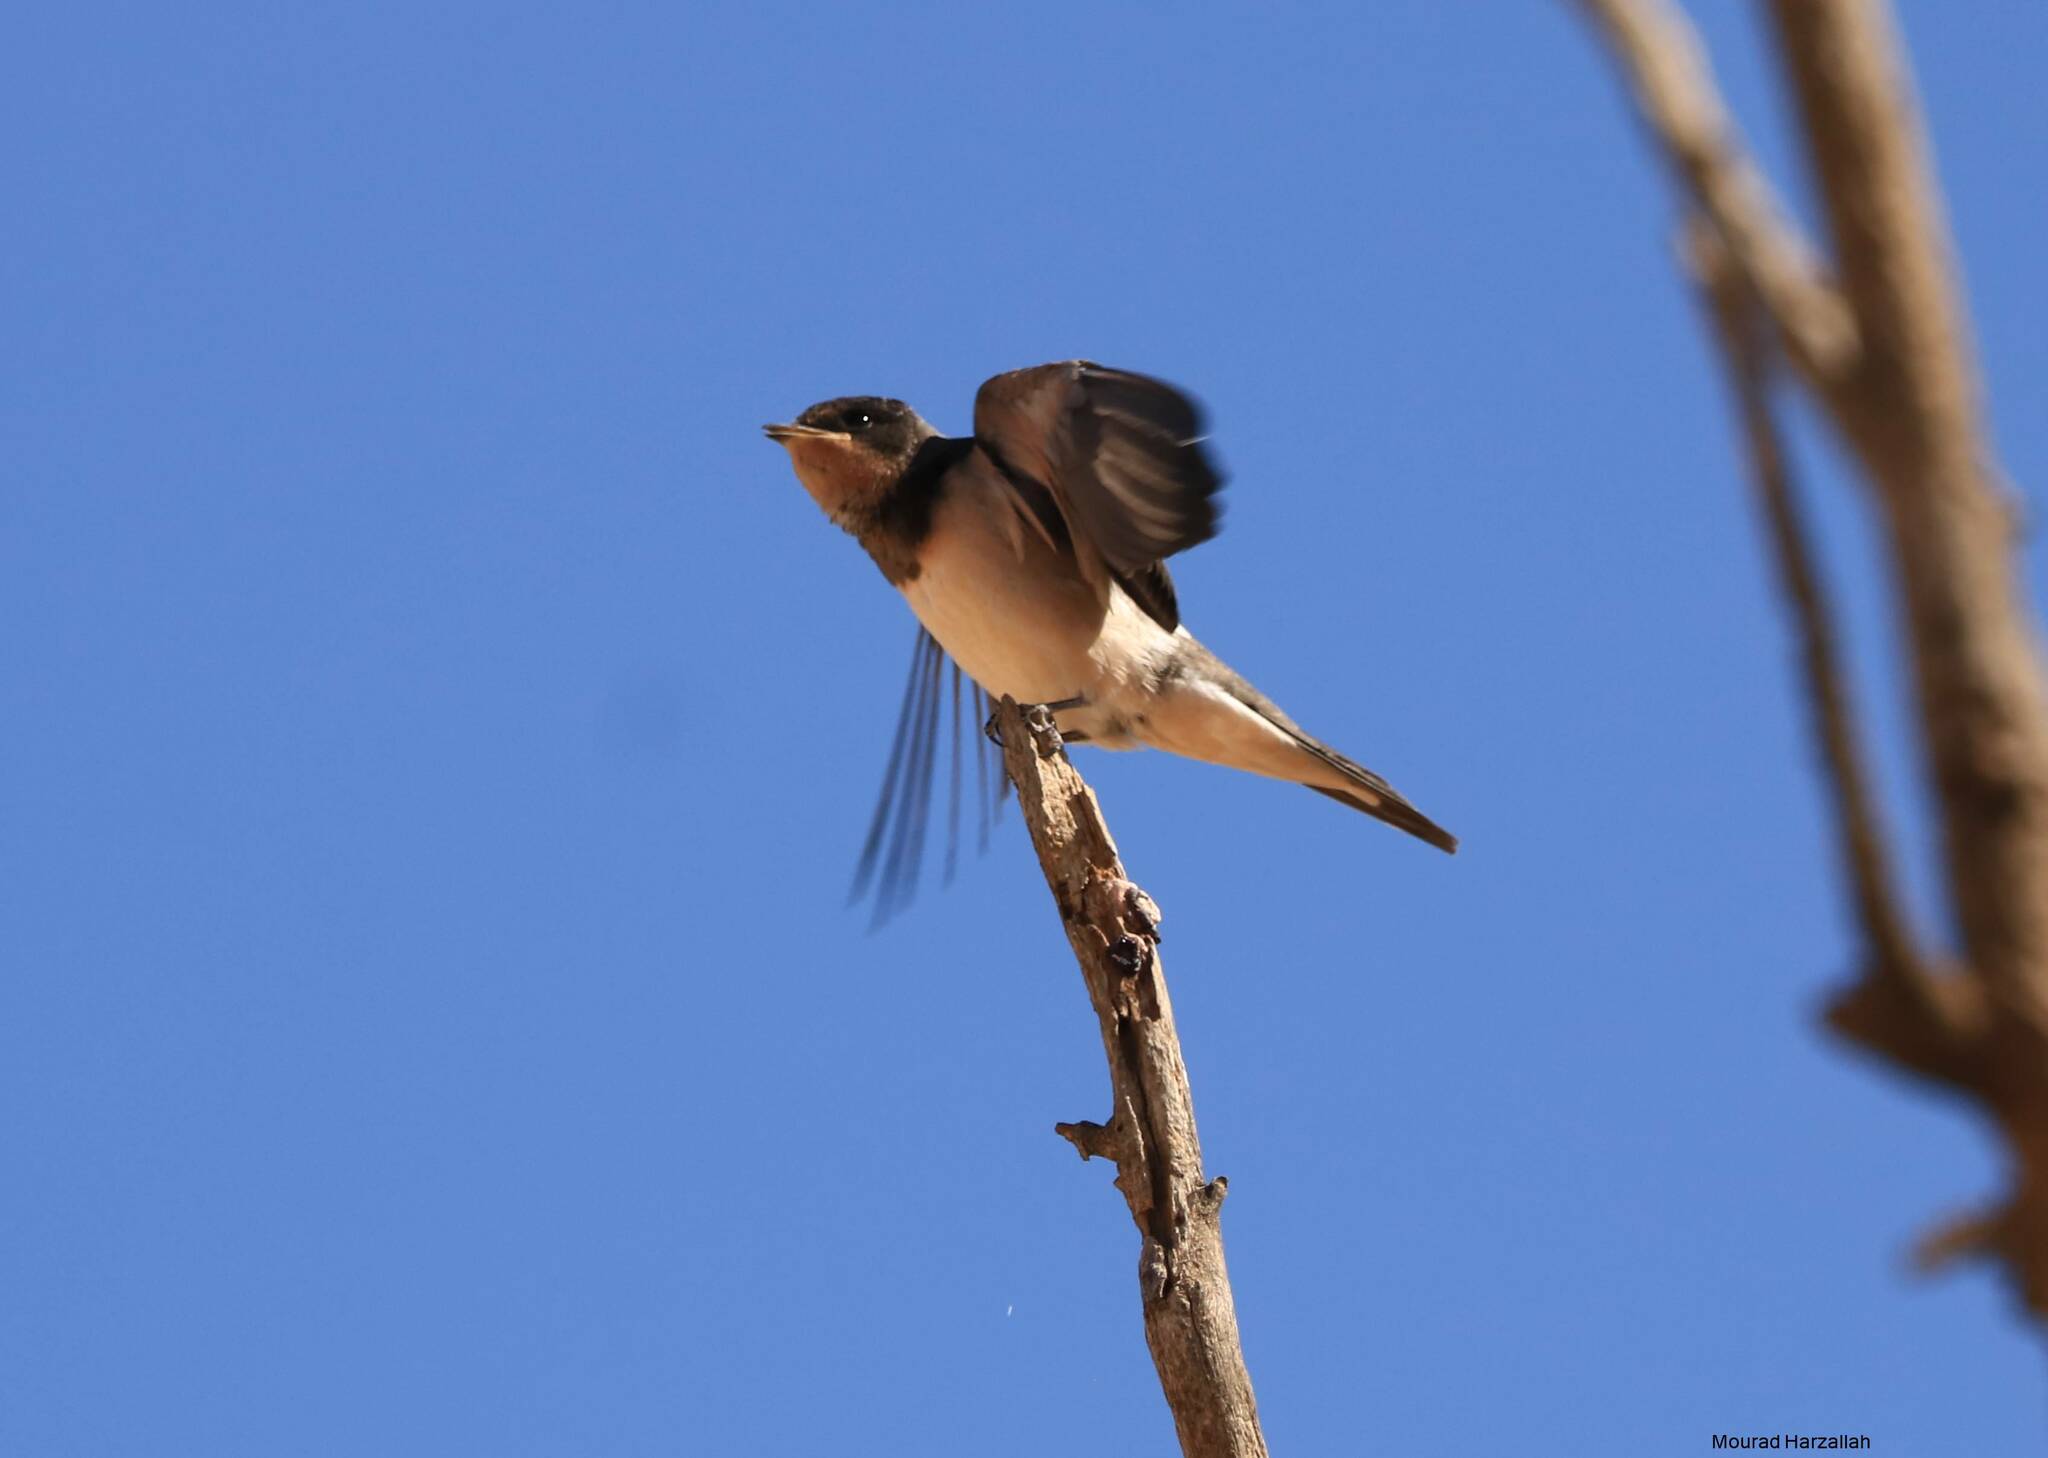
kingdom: Animalia
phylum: Chordata
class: Aves
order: Passeriformes
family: Hirundinidae
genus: Hirundo
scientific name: Hirundo rustica
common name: Barn swallow
